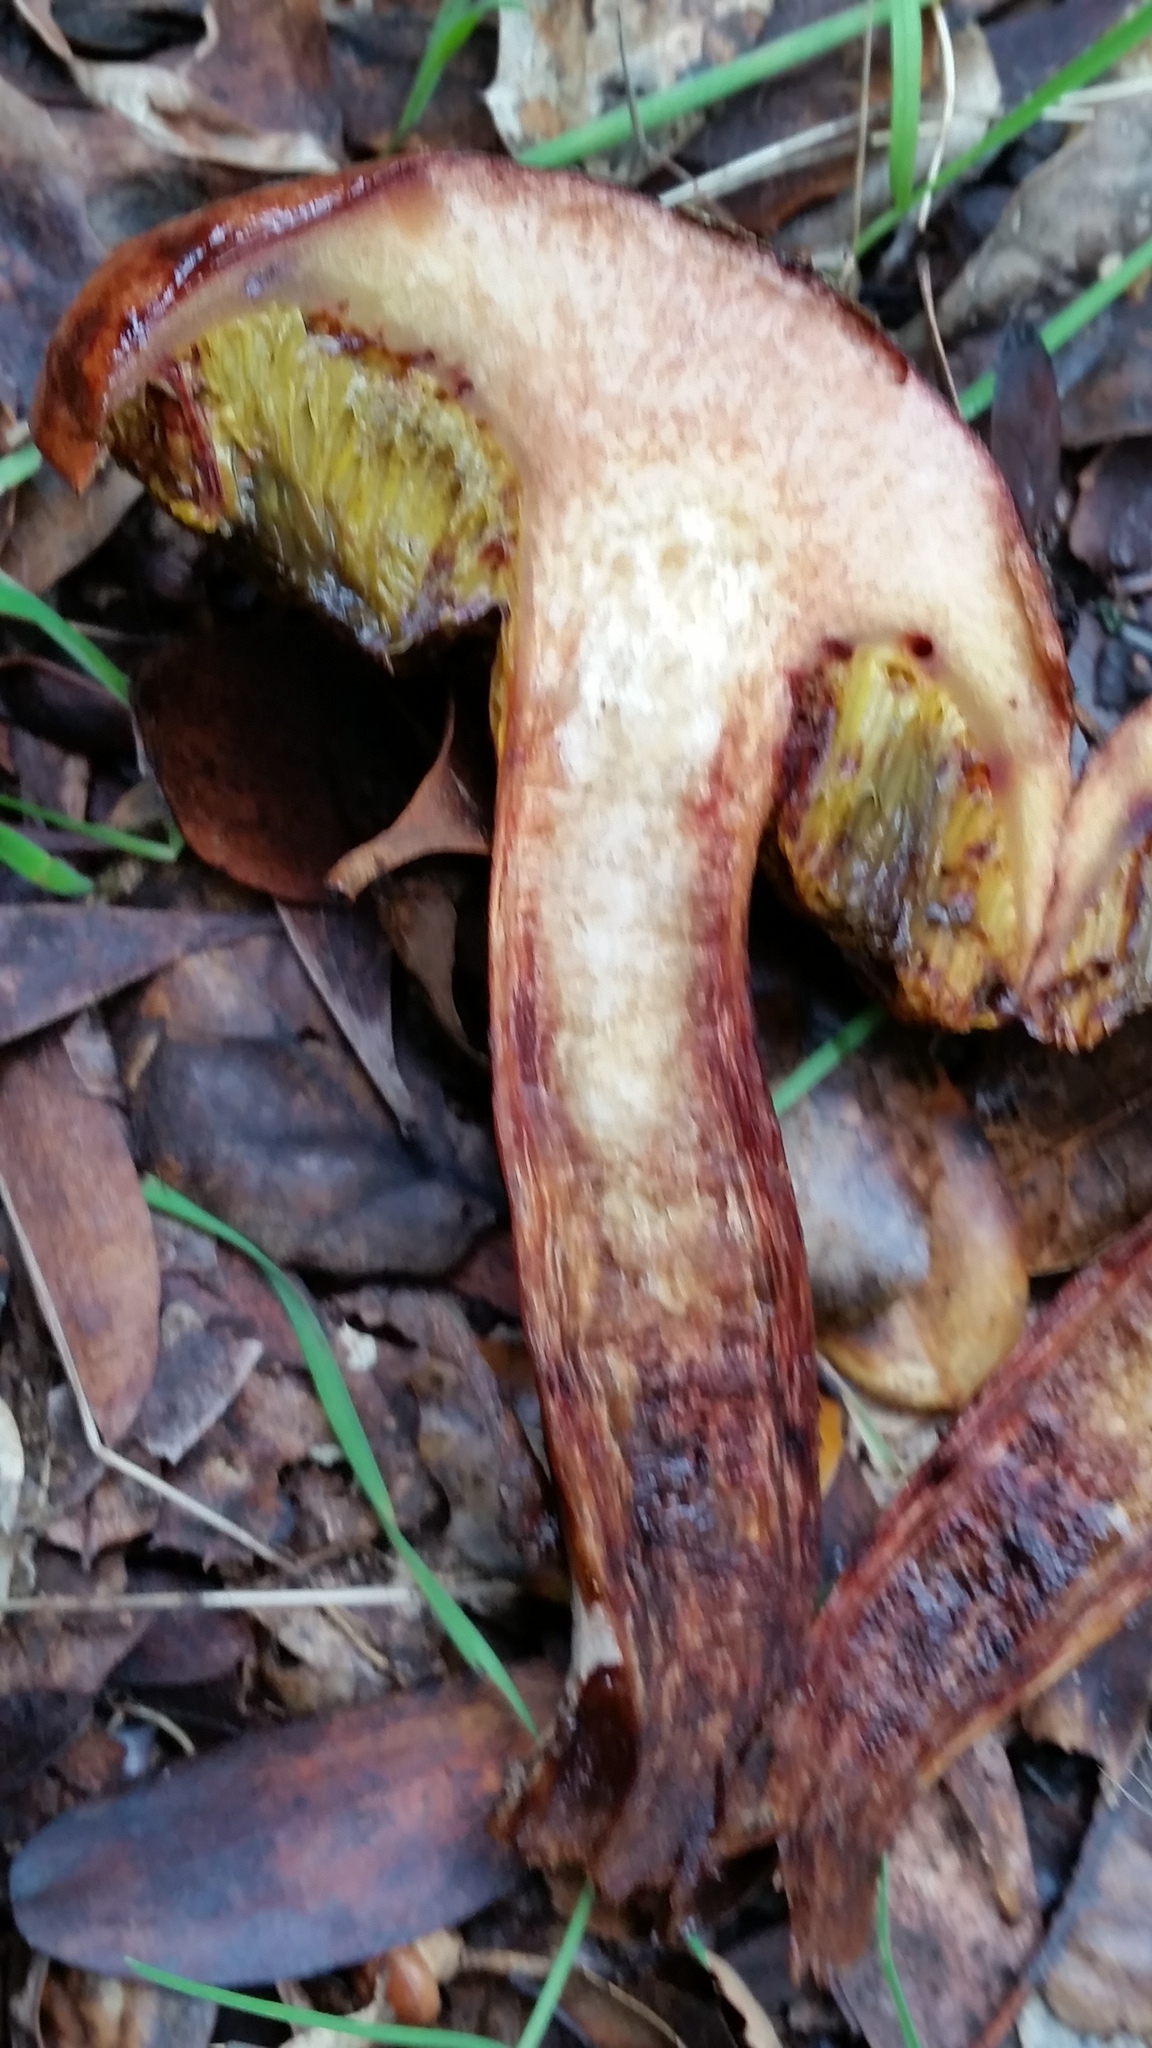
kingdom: Fungi
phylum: Basidiomycota
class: Agaricomycetes
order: Boletales
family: Boletaceae
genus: Aureoboletus
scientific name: Aureoboletus flaviporus
